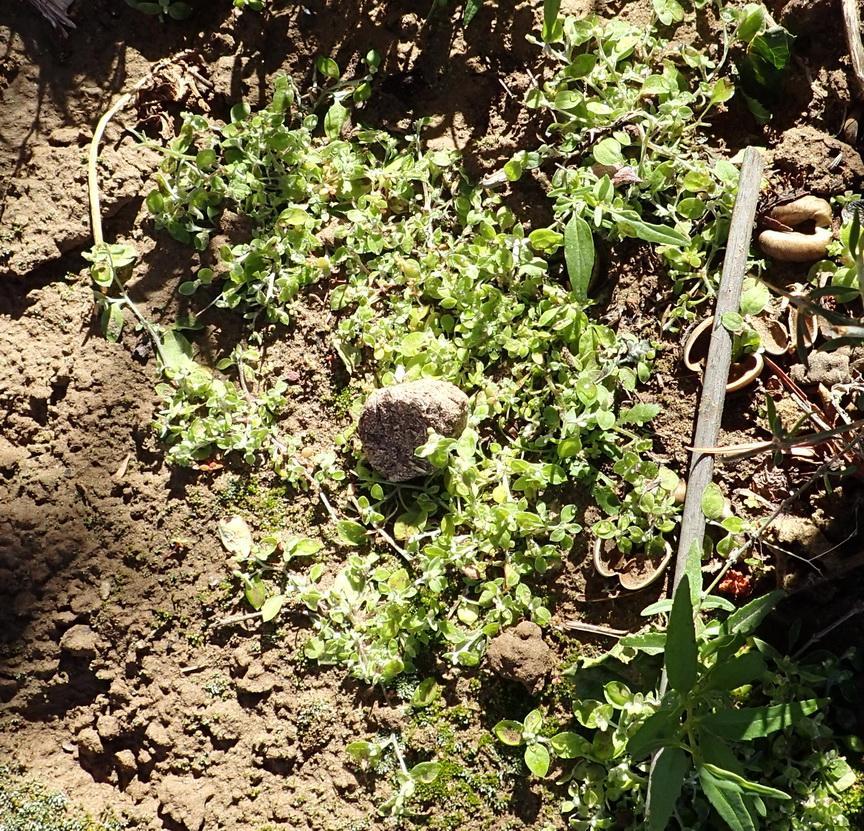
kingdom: Plantae
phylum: Tracheophyta
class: Magnoliopsida
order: Asterales
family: Asteraceae
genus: Troglophyton
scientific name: Troglophyton capillaceum
